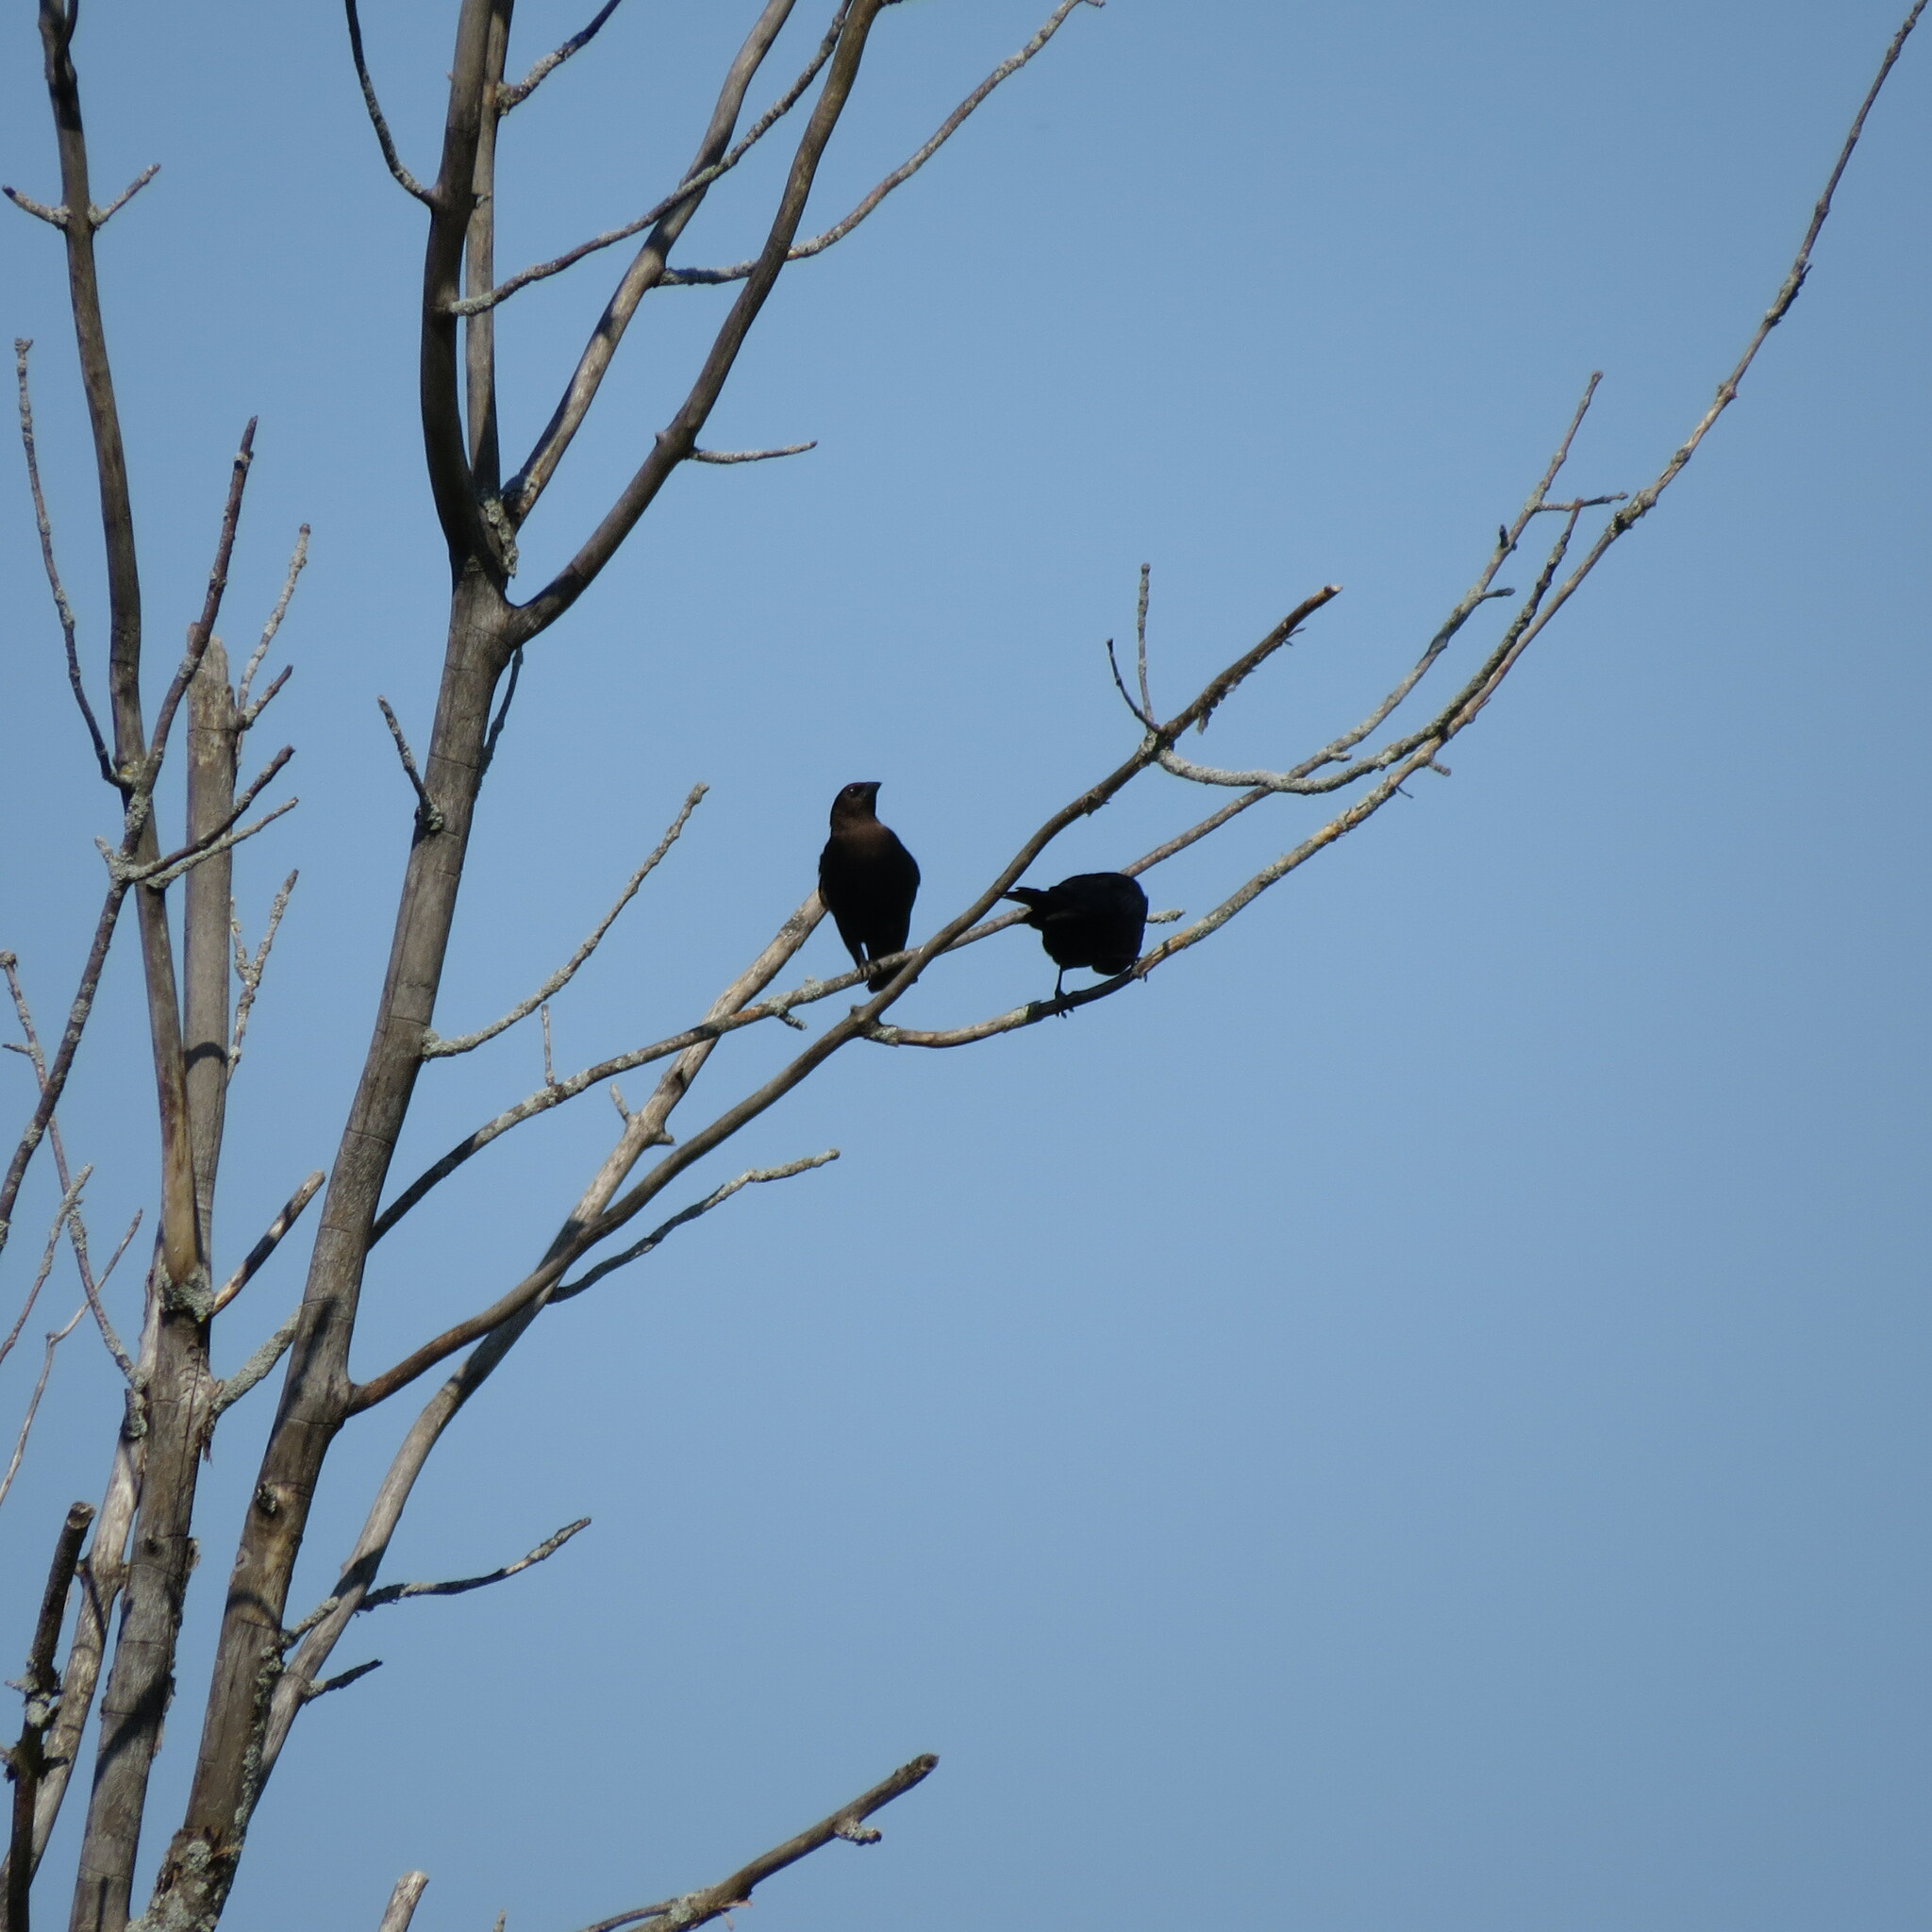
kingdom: Animalia
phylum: Chordata
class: Aves
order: Passeriformes
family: Icteridae
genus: Molothrus
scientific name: Molothrus ater
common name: Brown-headed cowbird
